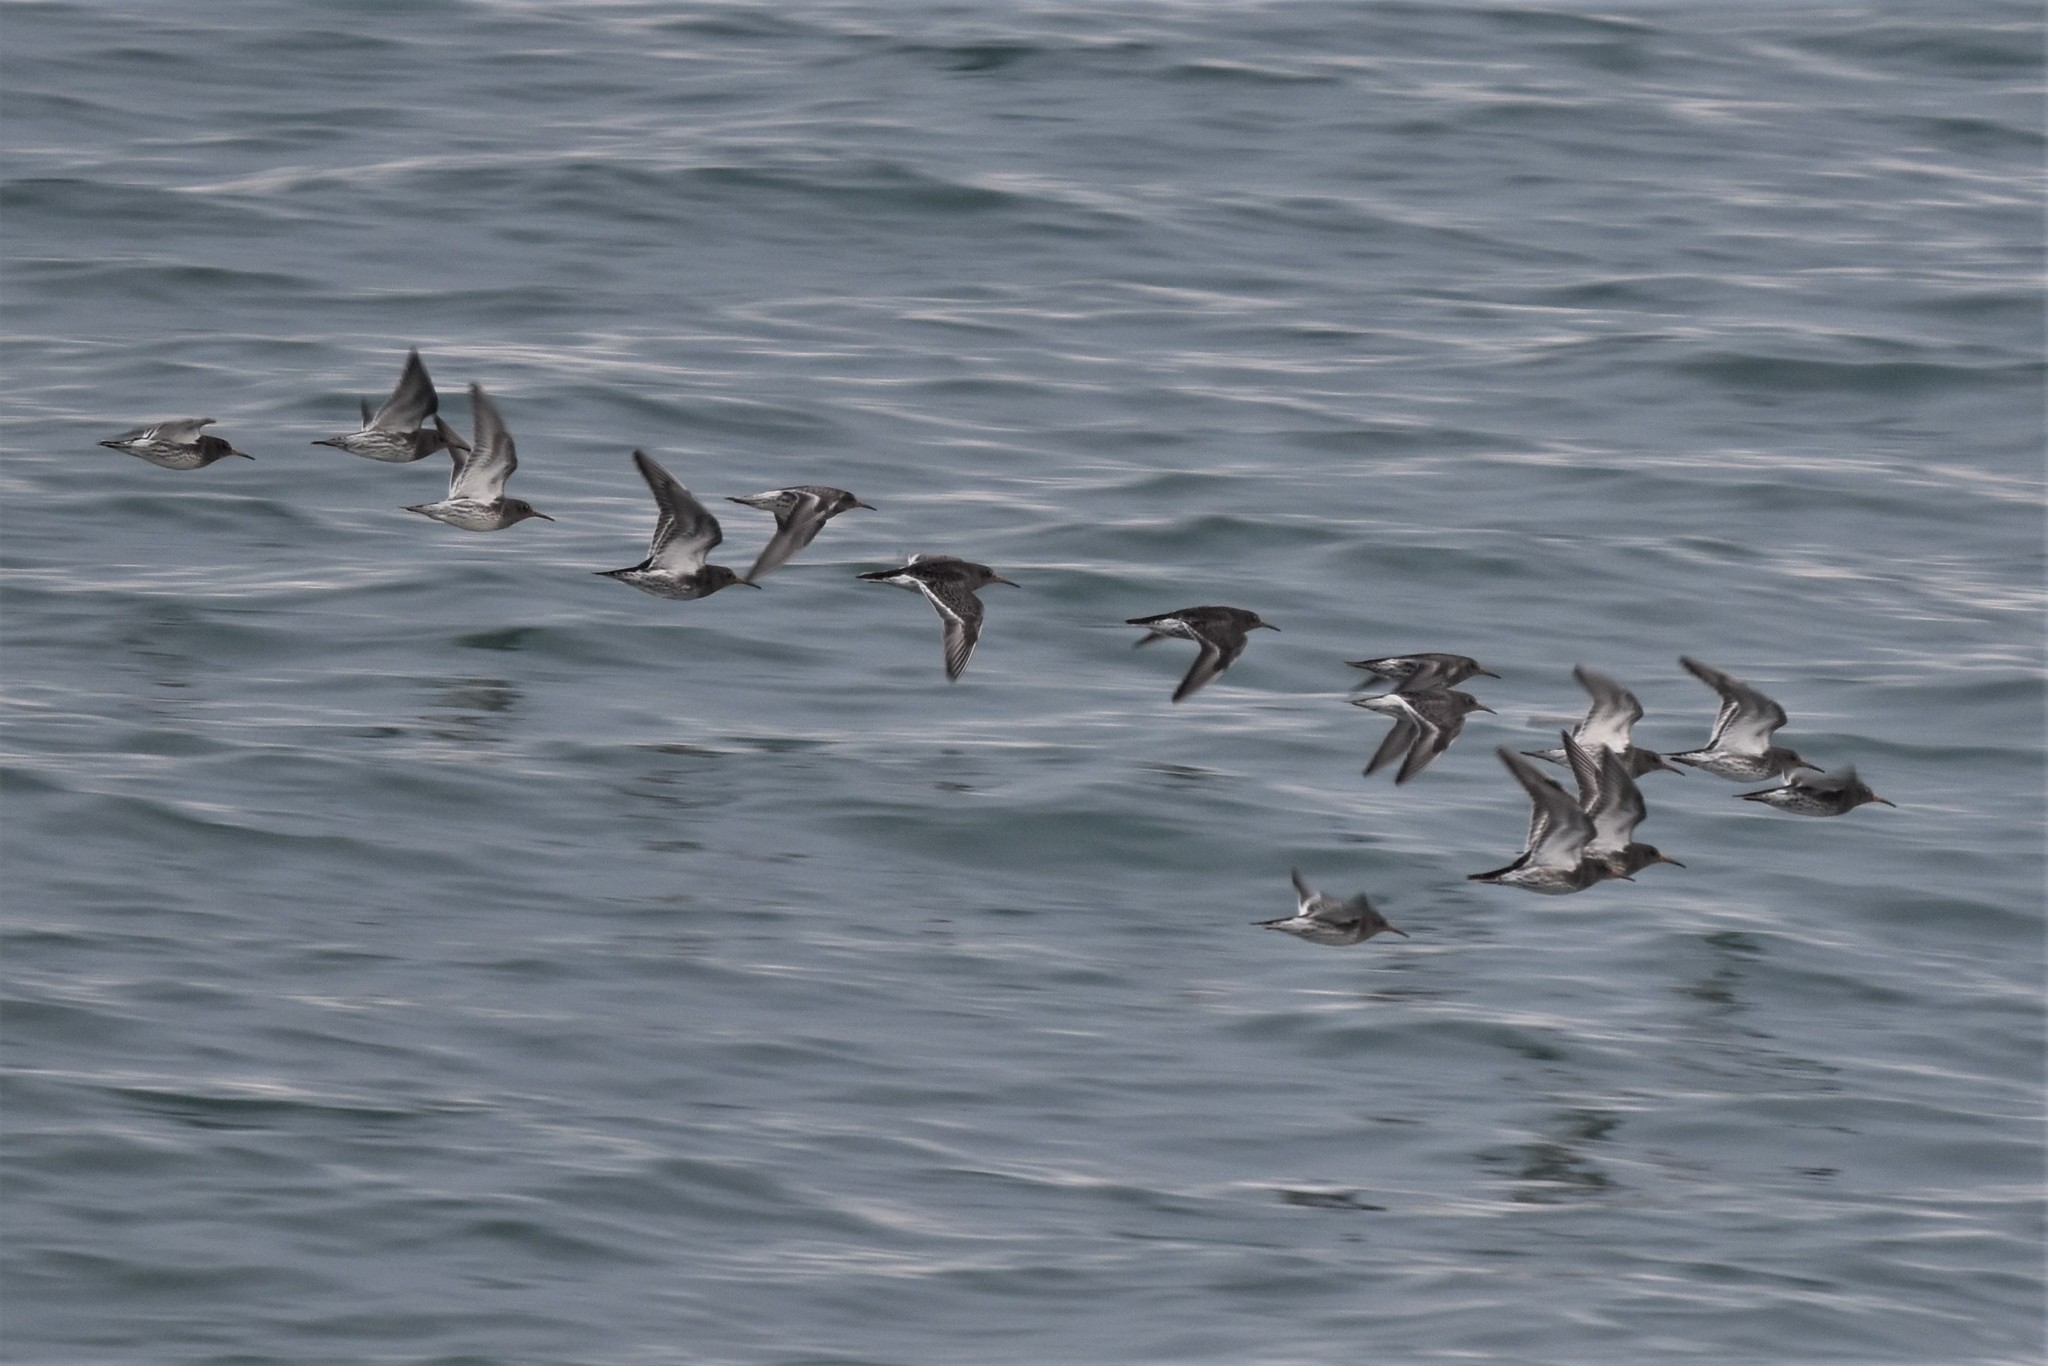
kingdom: Animalia
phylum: Chordata
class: Aves
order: Charadriiformes
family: Scolopacidae
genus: Calidris
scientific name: Calidris maritima
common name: Purple sandpiper
